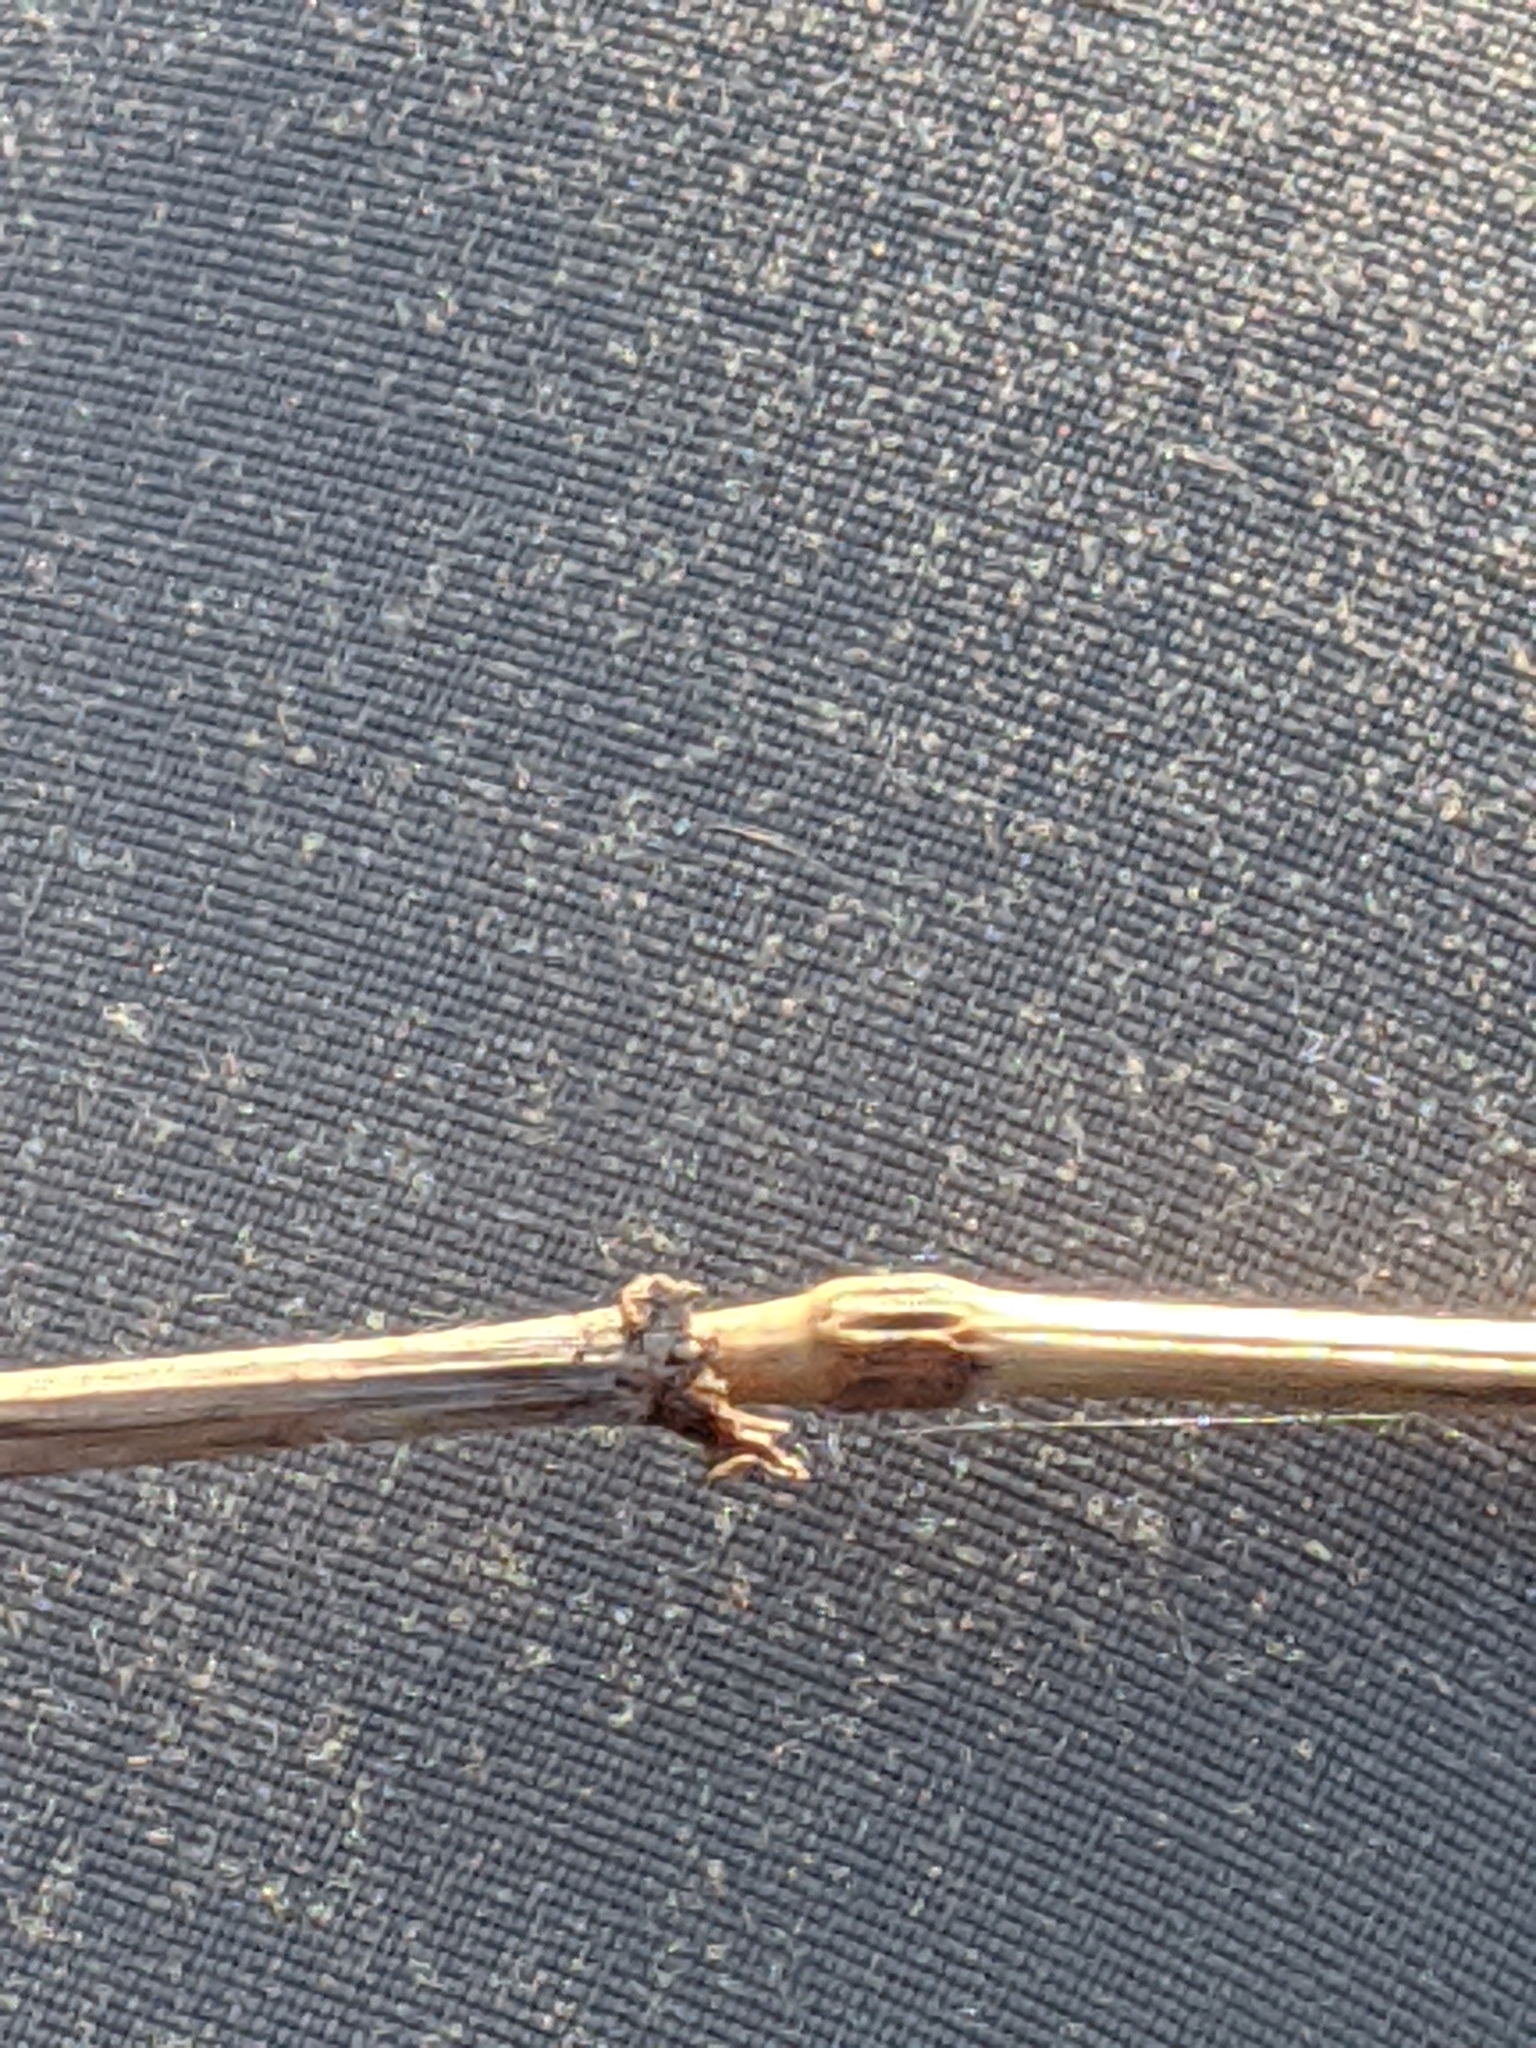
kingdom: Plantae
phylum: Tracheophyta
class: Liliopsida
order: Poales
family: Poaceae
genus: Elymus
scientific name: Elymus villosus
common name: Downy wild rye
